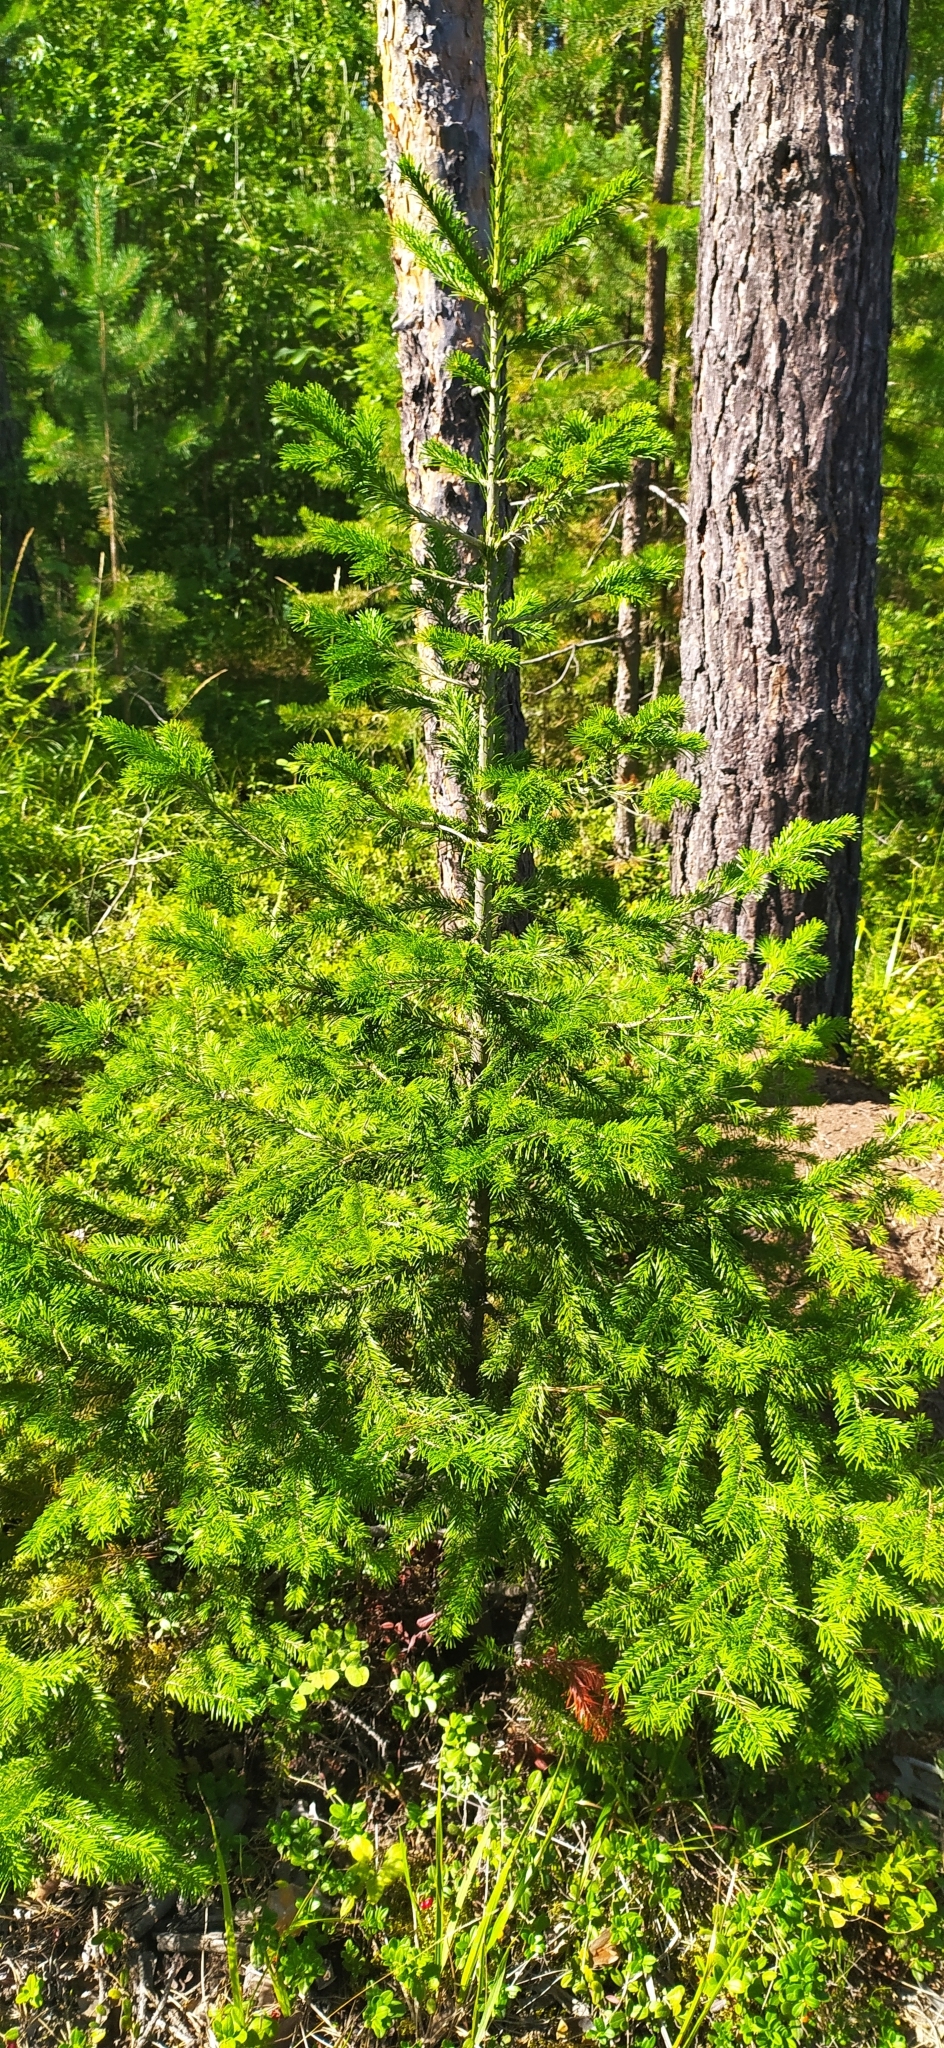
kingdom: Plantae
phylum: Tracheophyta
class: Pinopsida
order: Pinales
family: Pinaceae
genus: Abies
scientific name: Abies sibirica
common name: Siberian fir
